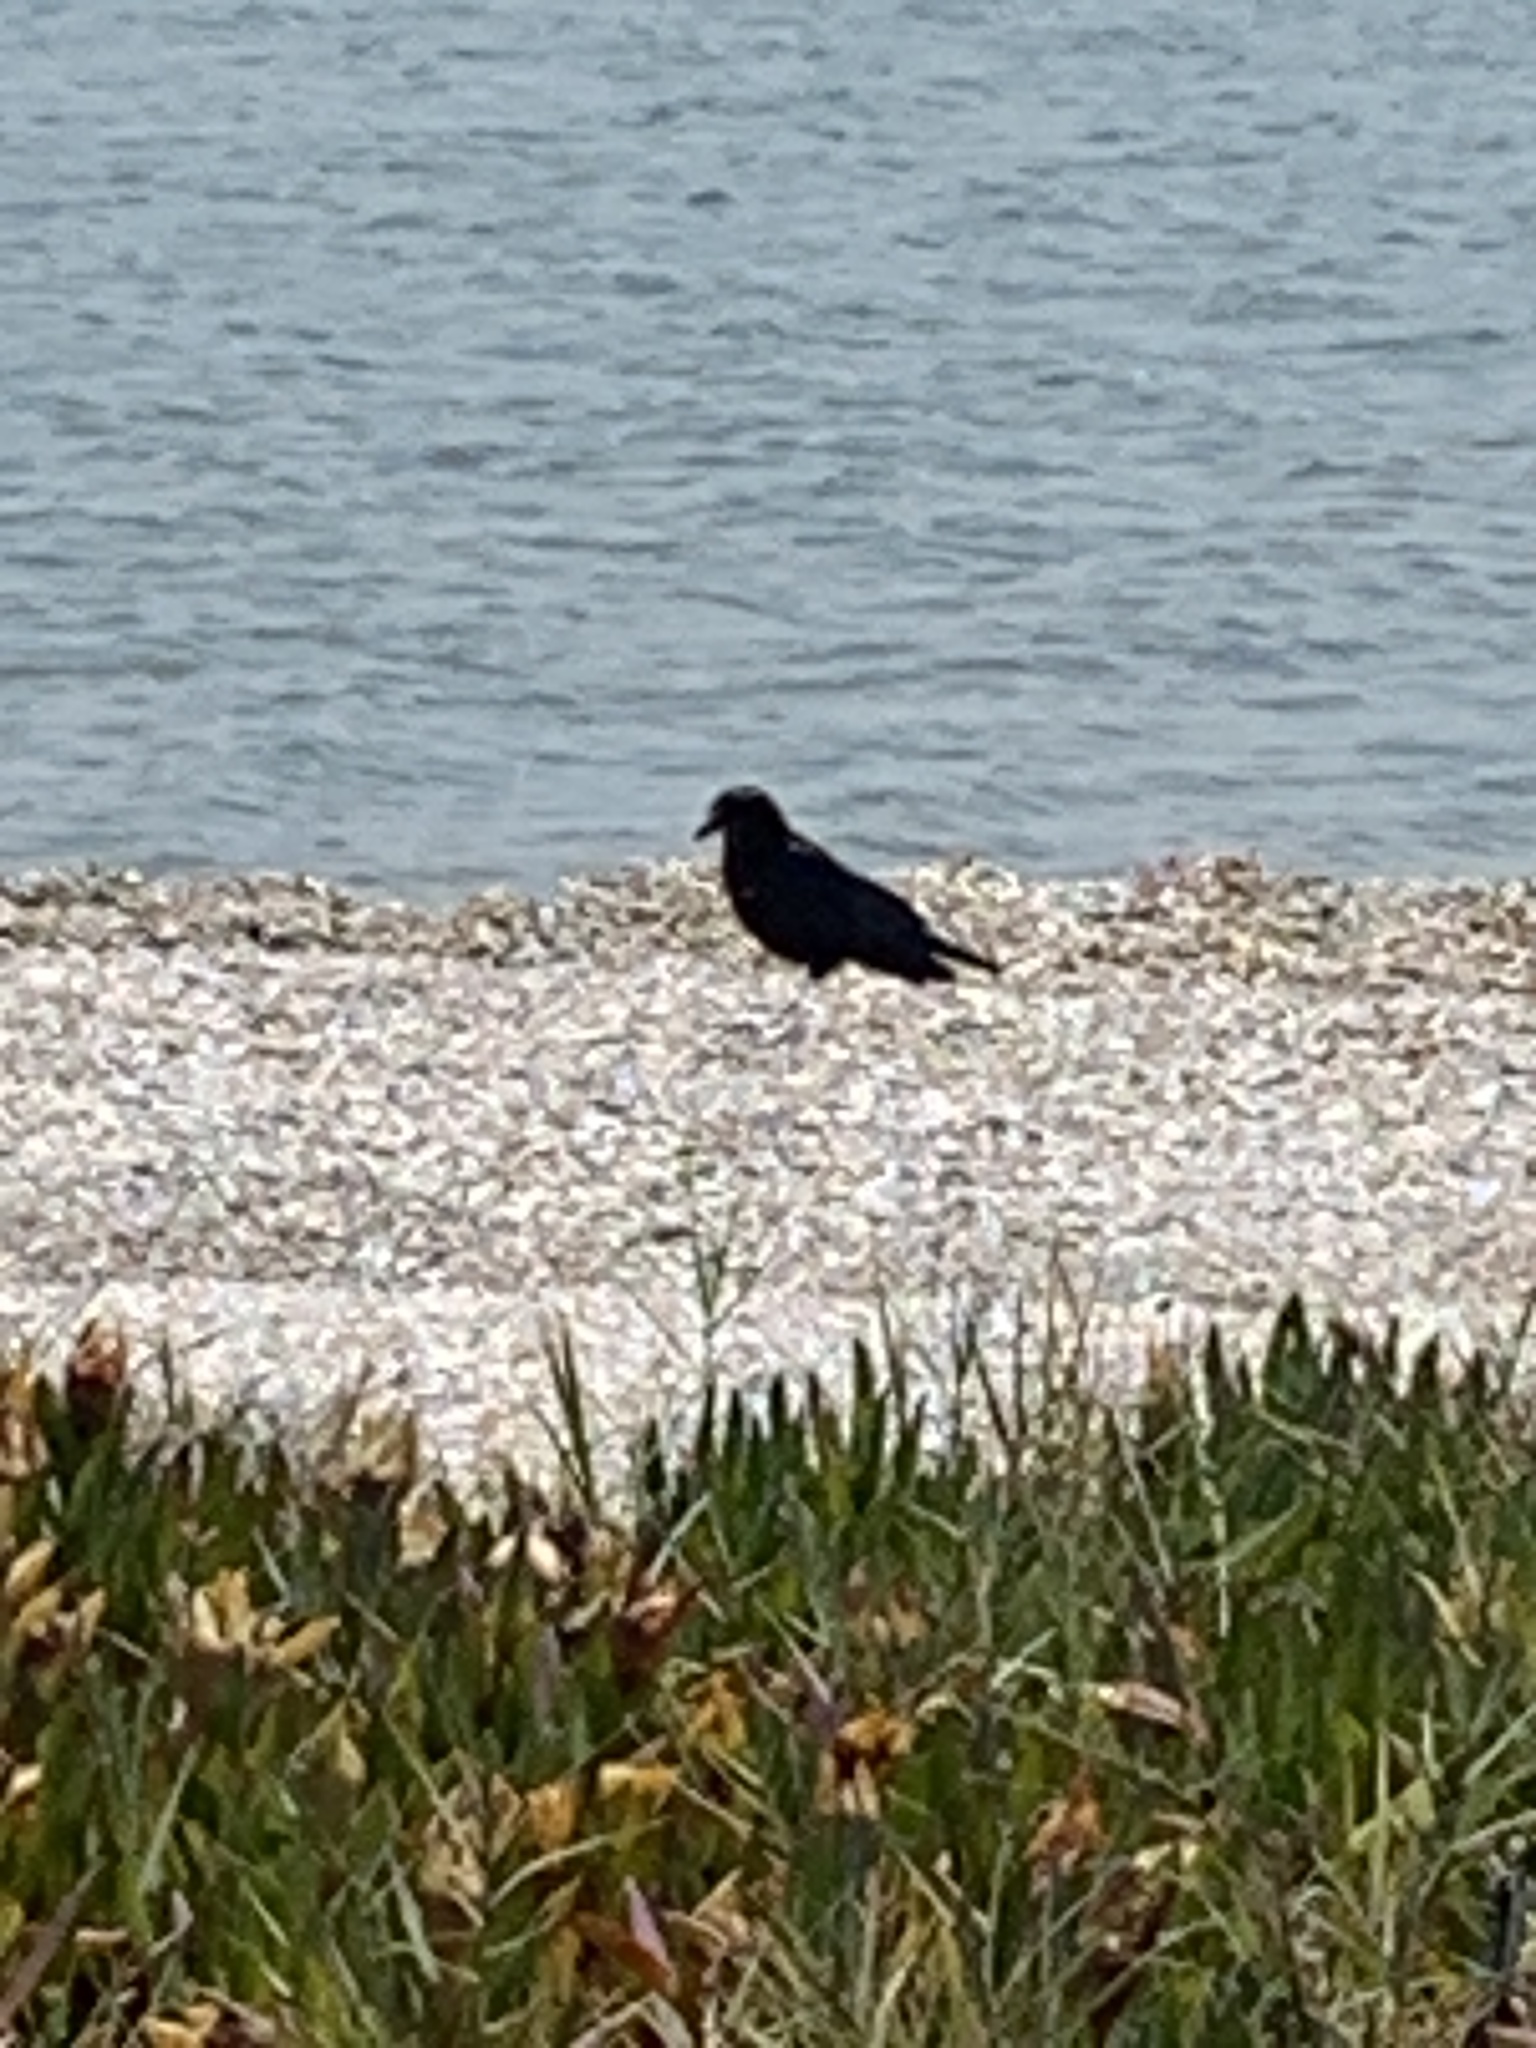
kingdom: Animalia
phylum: Chordata
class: Aves
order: Passeriformes
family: Corvidae
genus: Corvus
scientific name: Corvus brachyrhynchos
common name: American crow
